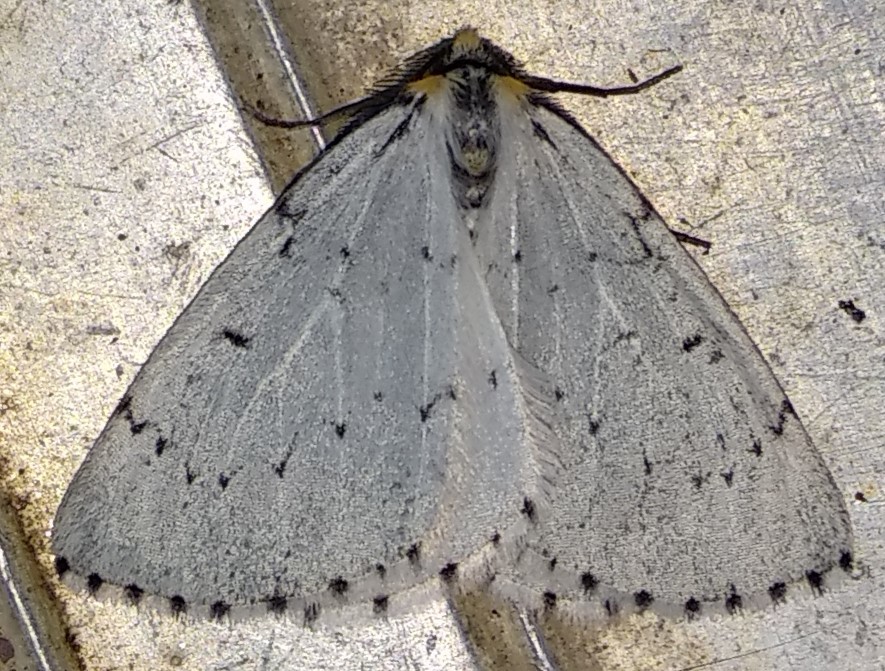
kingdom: Animalia
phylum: Arthropoda
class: Insecta
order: Lepidoptera
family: Geometridae
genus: Cingilia
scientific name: Cingilia catenaria
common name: Chain-dotted geometer
